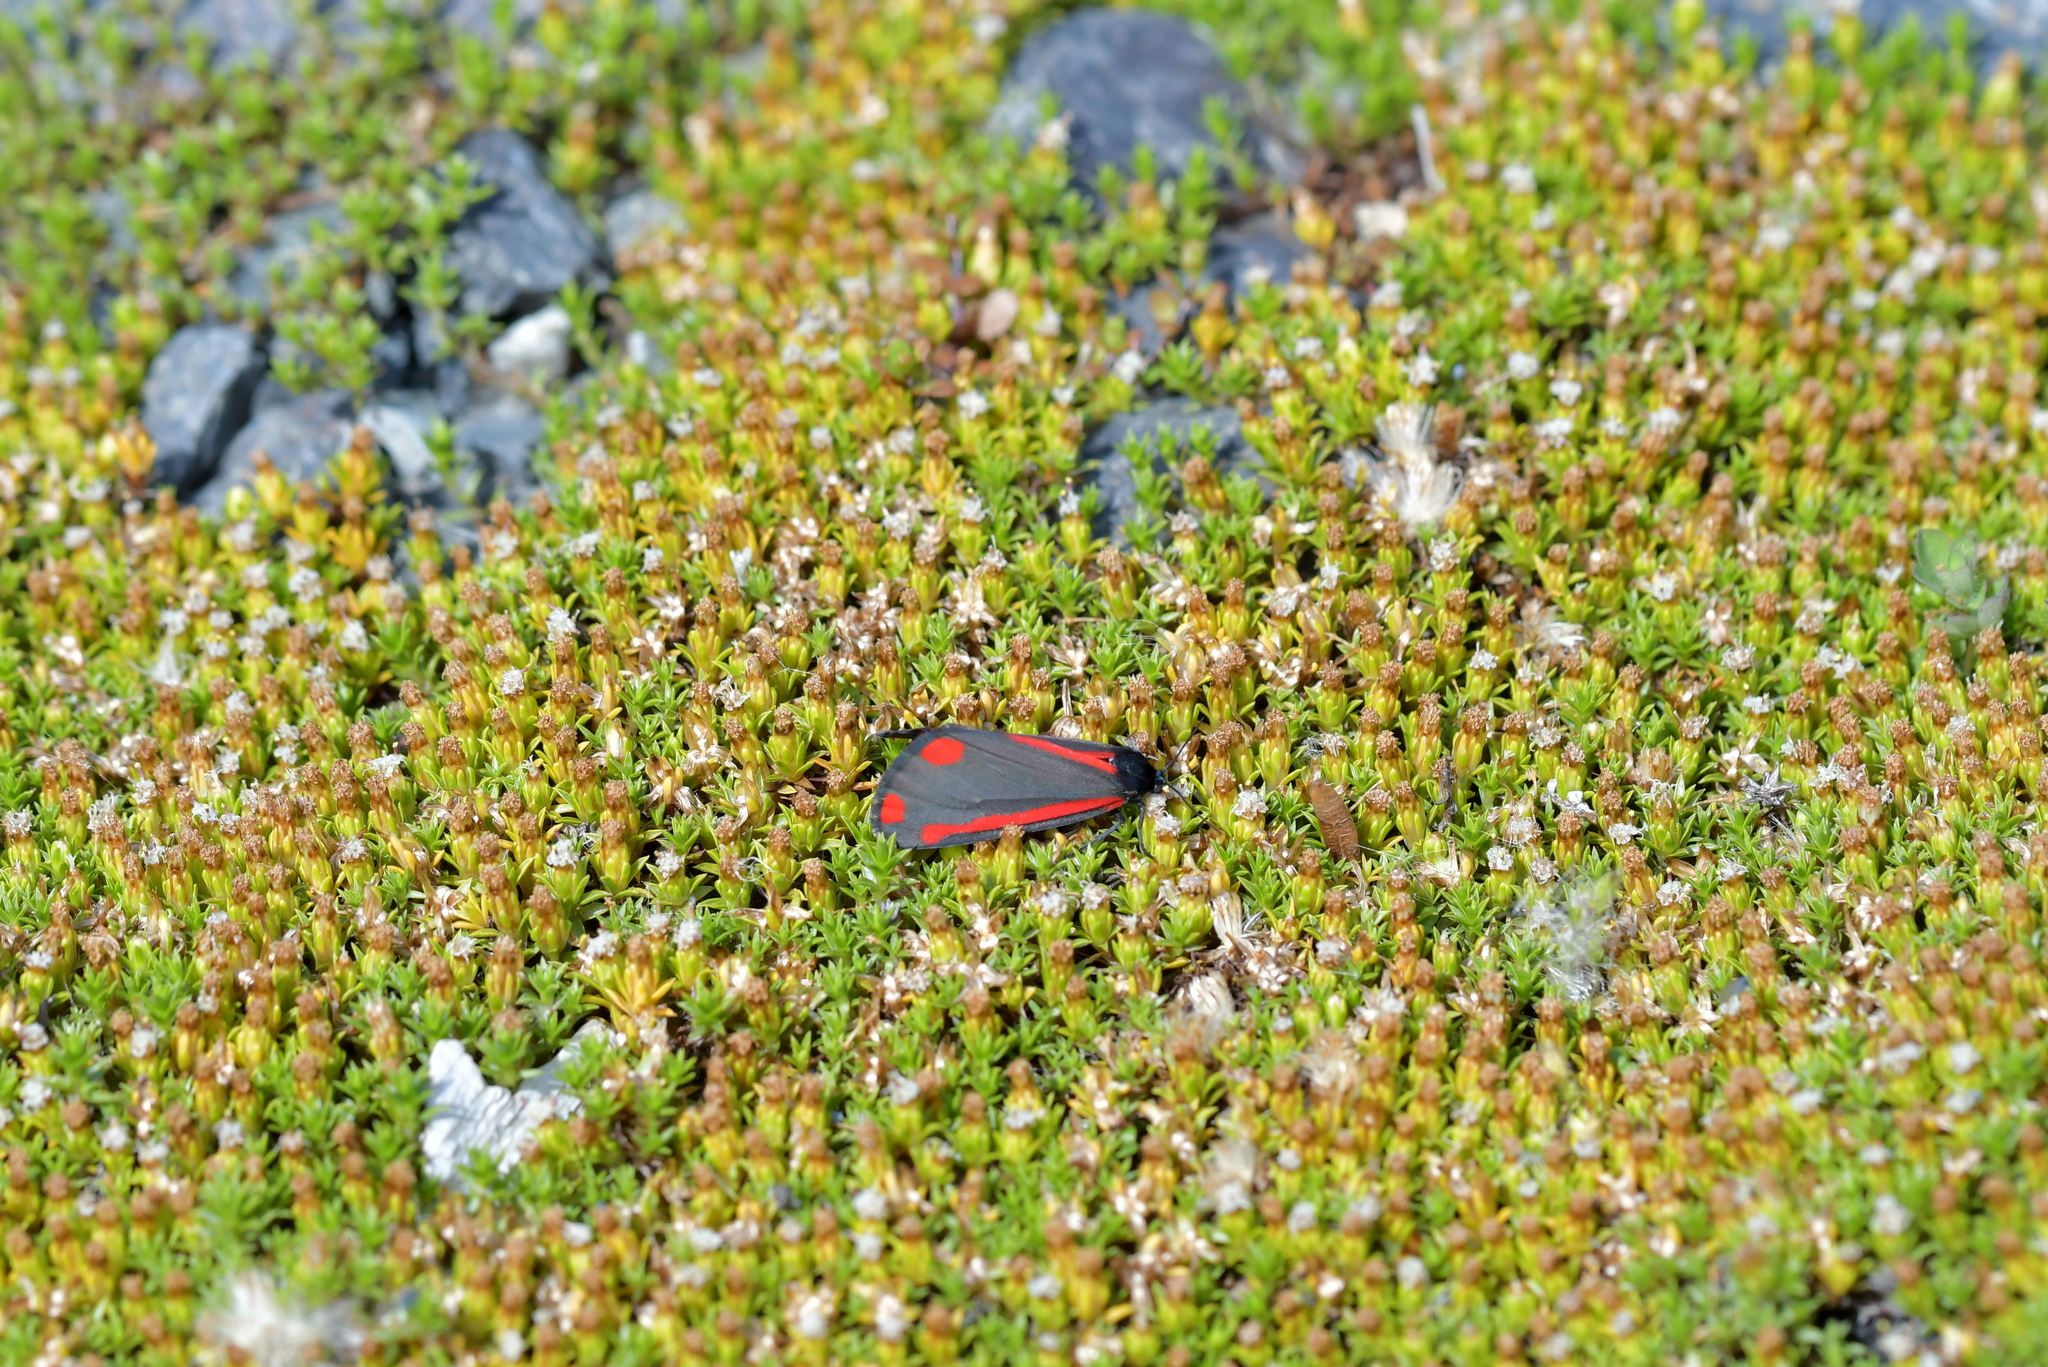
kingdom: Animalia
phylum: Arthropoda
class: Insecta
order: Lepidoptera
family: Erebidae
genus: Tyria
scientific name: Tyria jacobaeae
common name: Cinnabar
